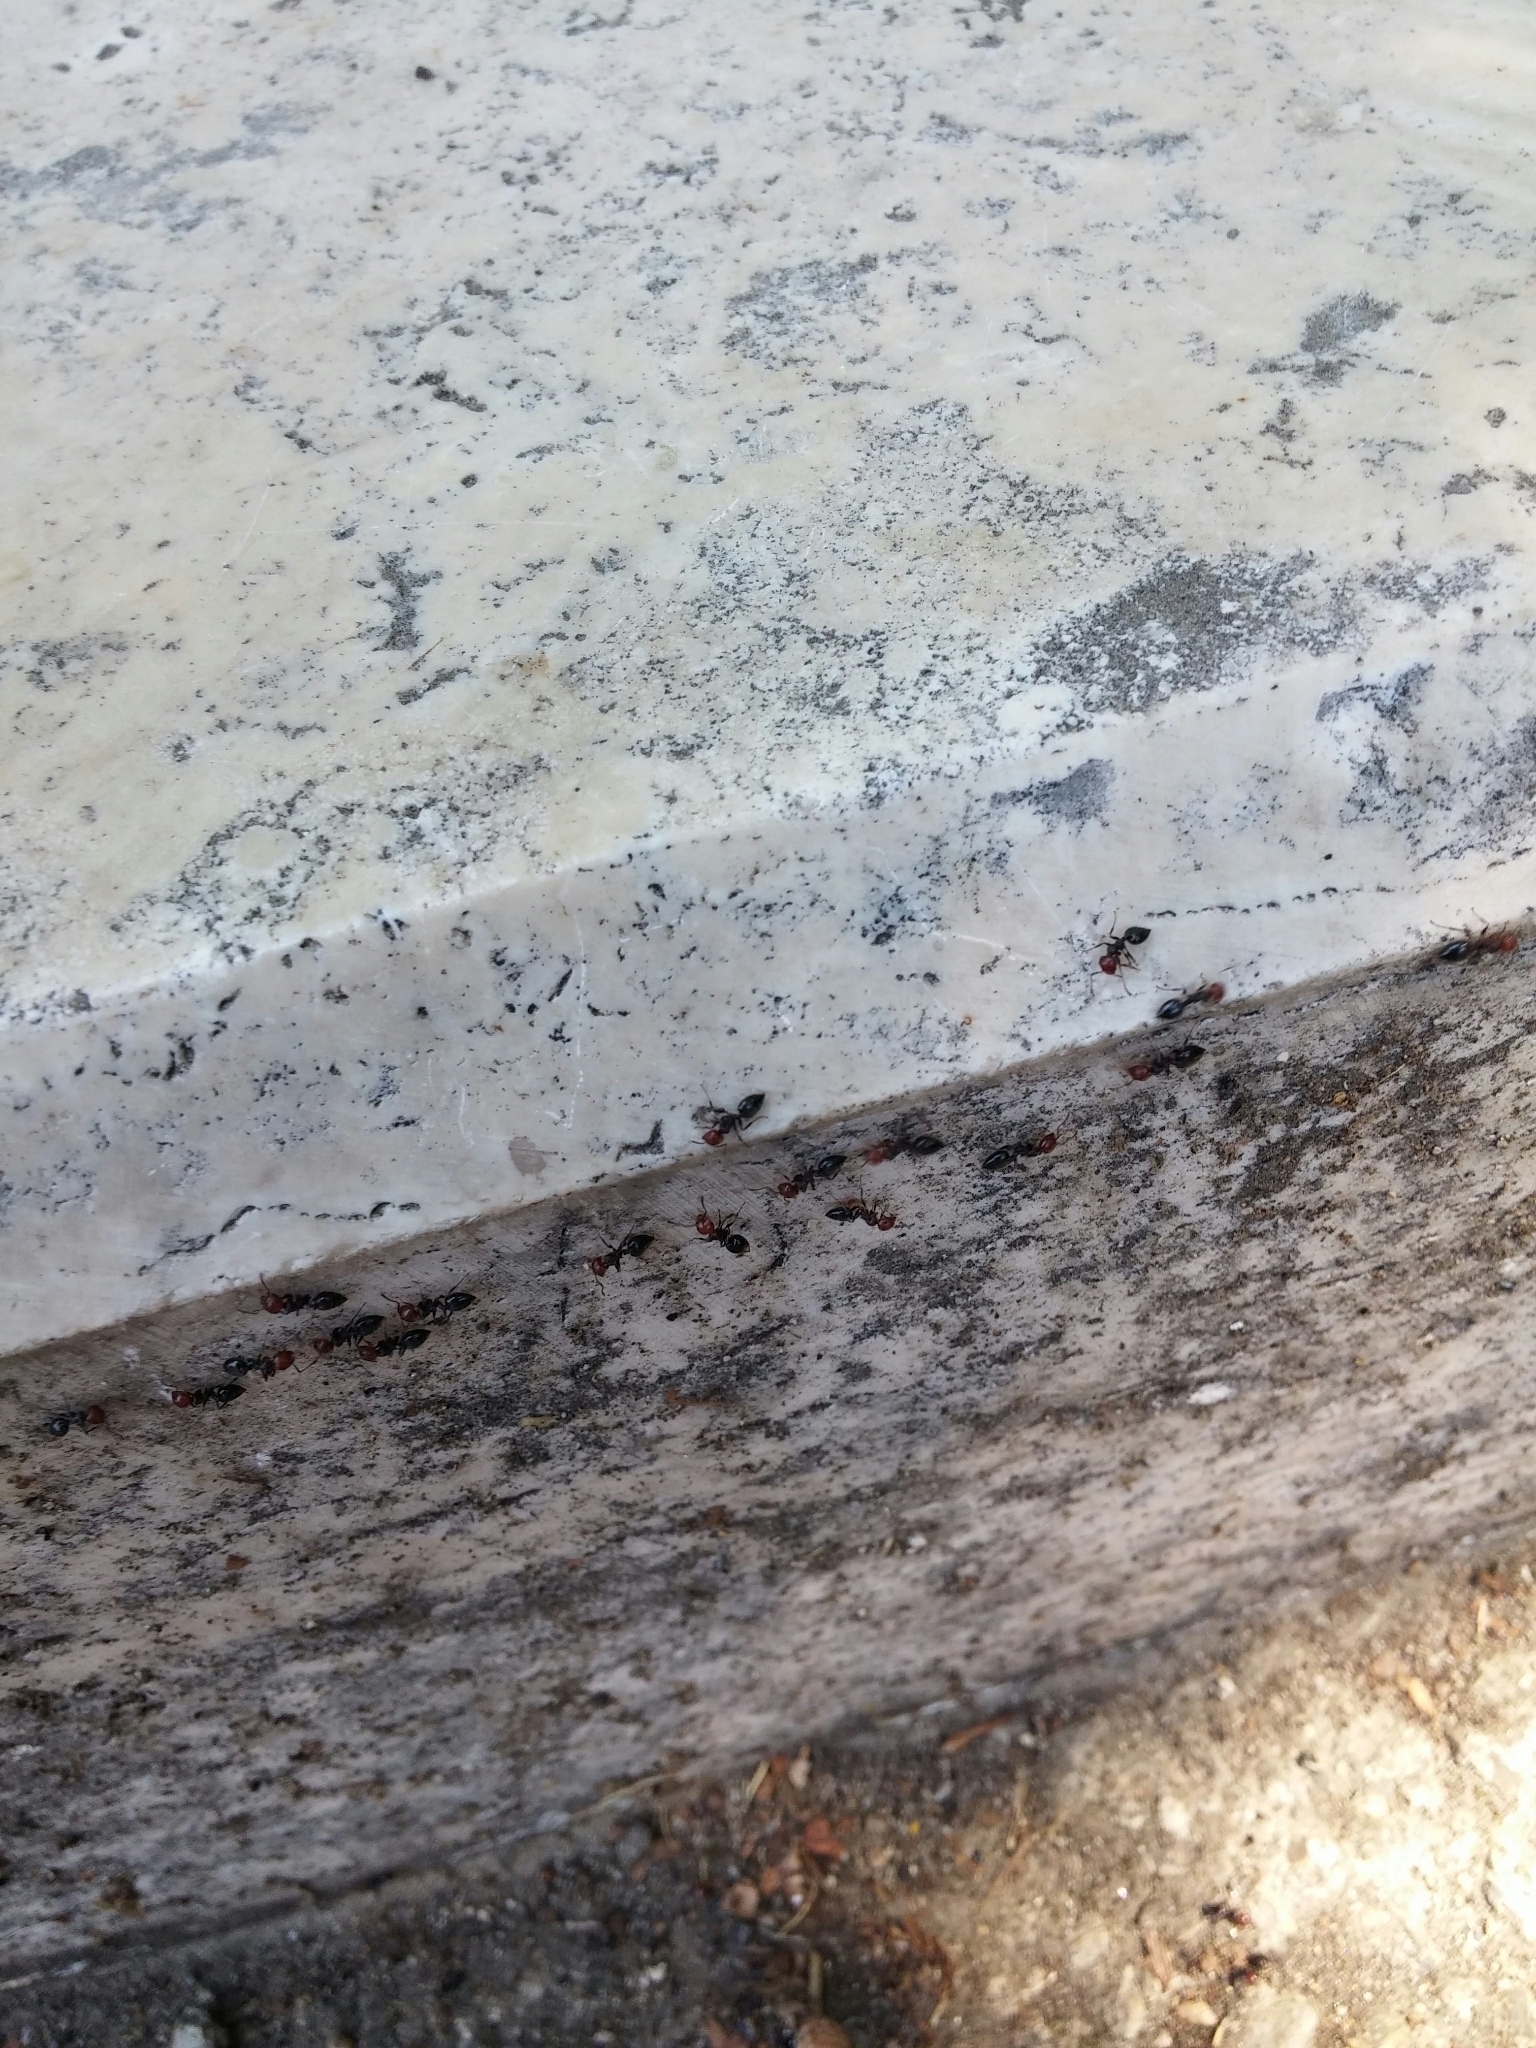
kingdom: Animalia
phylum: Arthropoda
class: Insecta
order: Hymenoptera
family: Formicidae
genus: Crematogaster
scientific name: Crematogaster scutellaris
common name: Fourmi du liège
